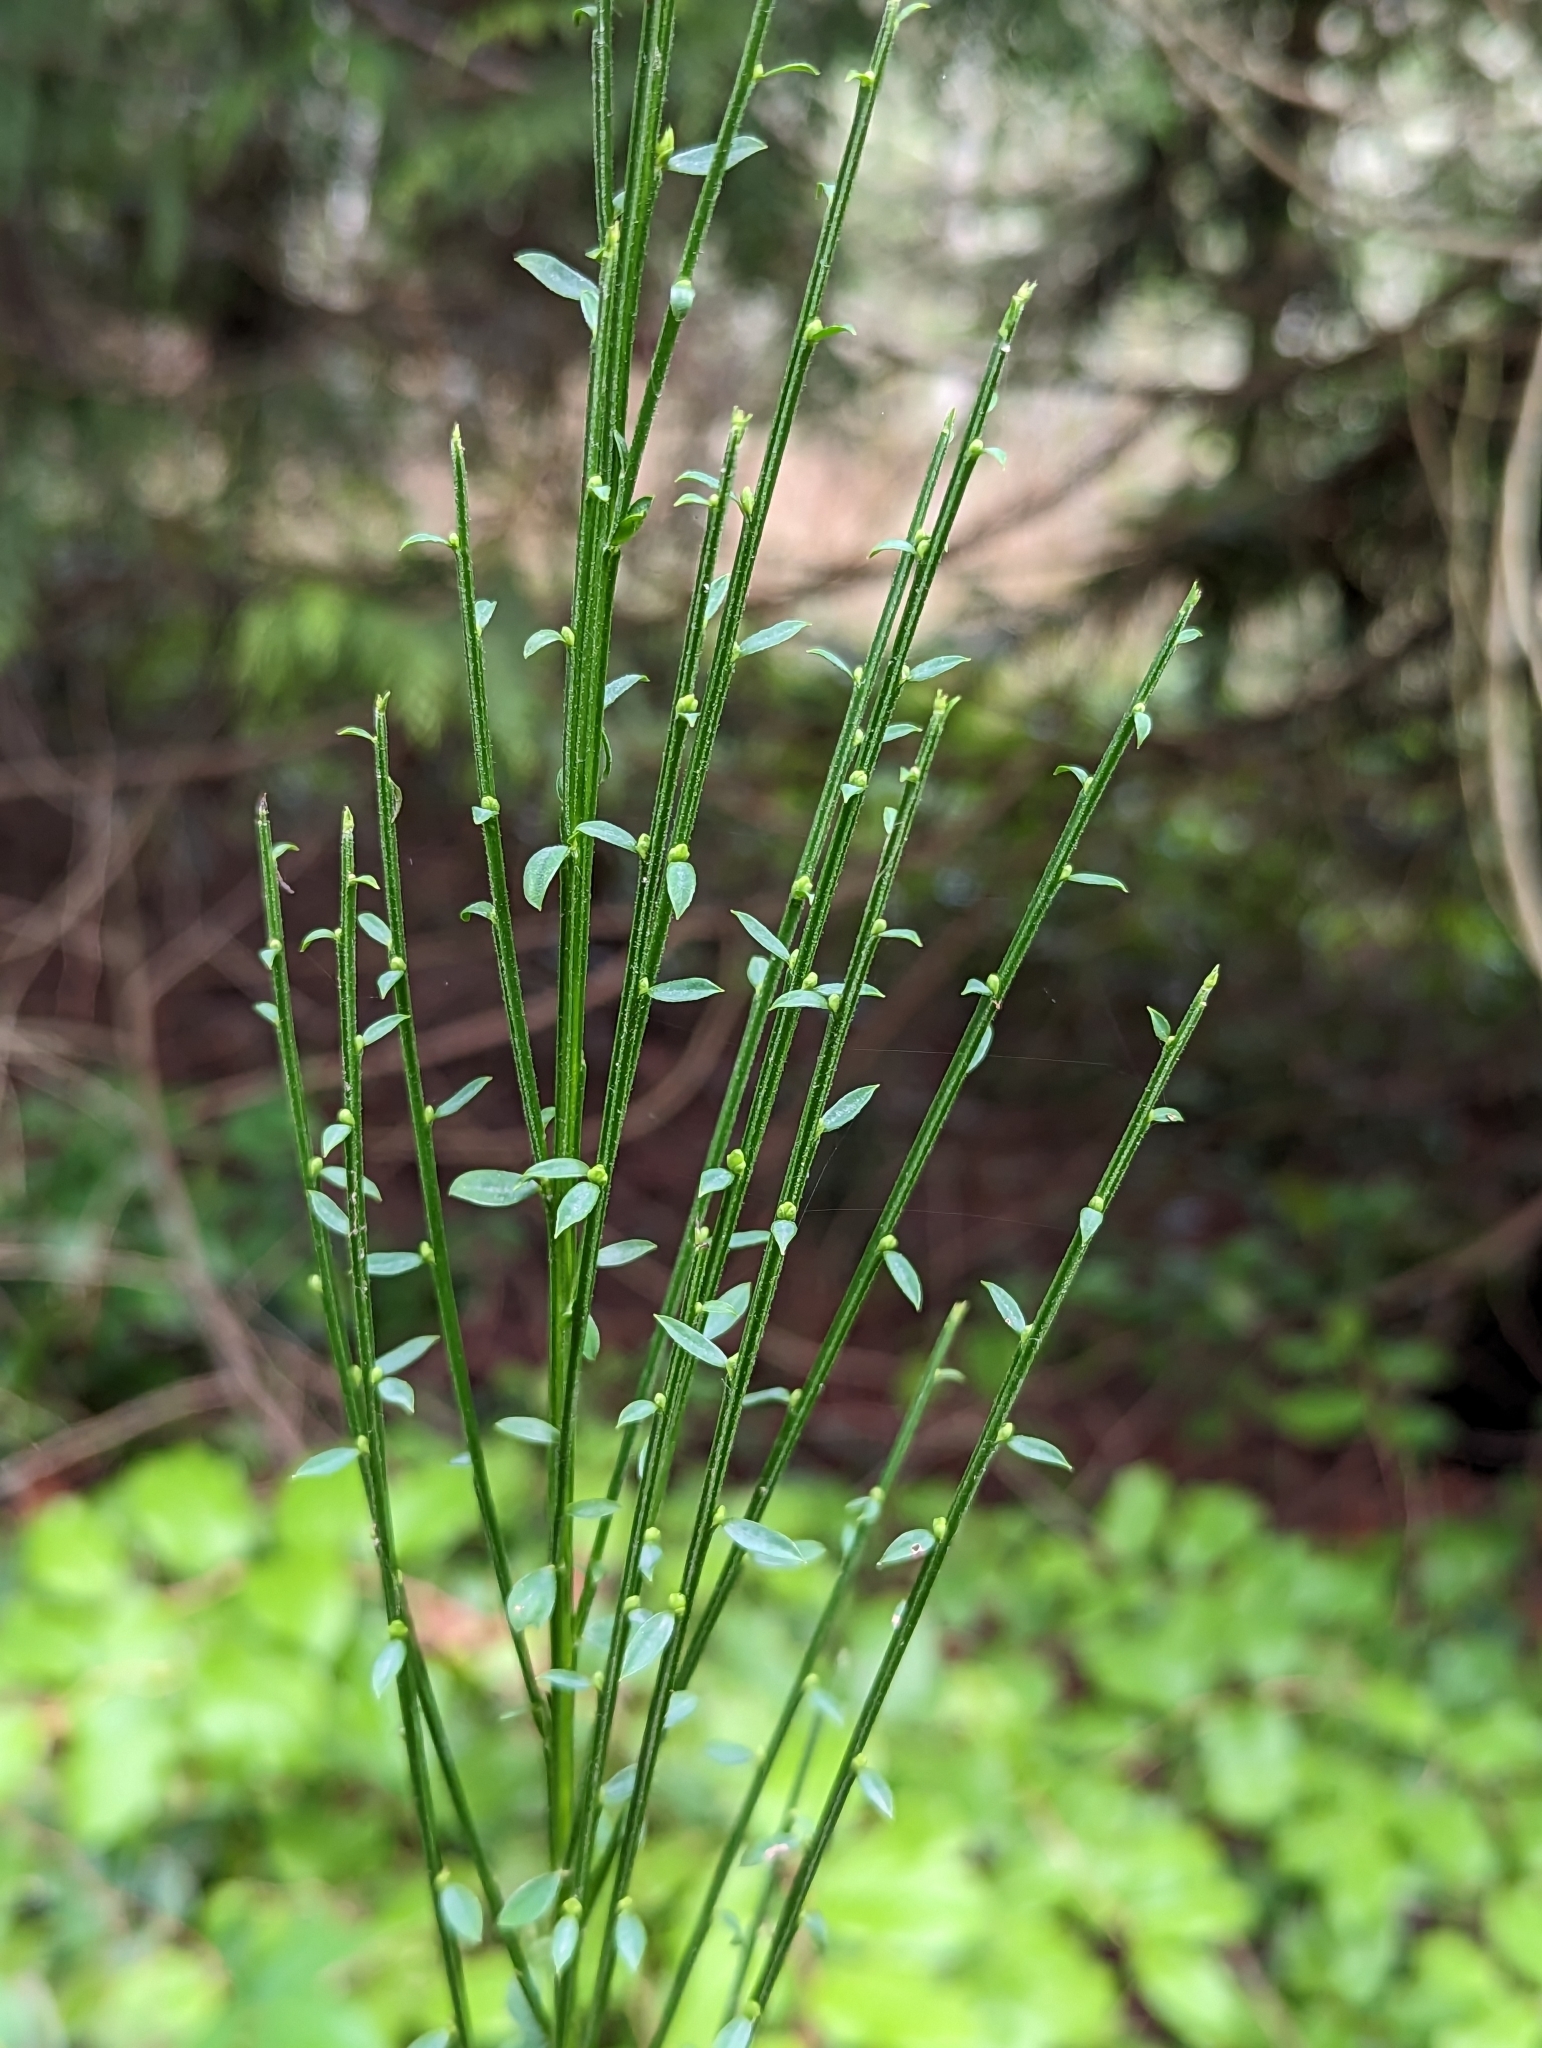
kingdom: Plantae
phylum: Tracheophyta
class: Magnoliopsida
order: Fabales
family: Fabaceae
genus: Cytisus
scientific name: Cytisus scoparius
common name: Scotch broom
